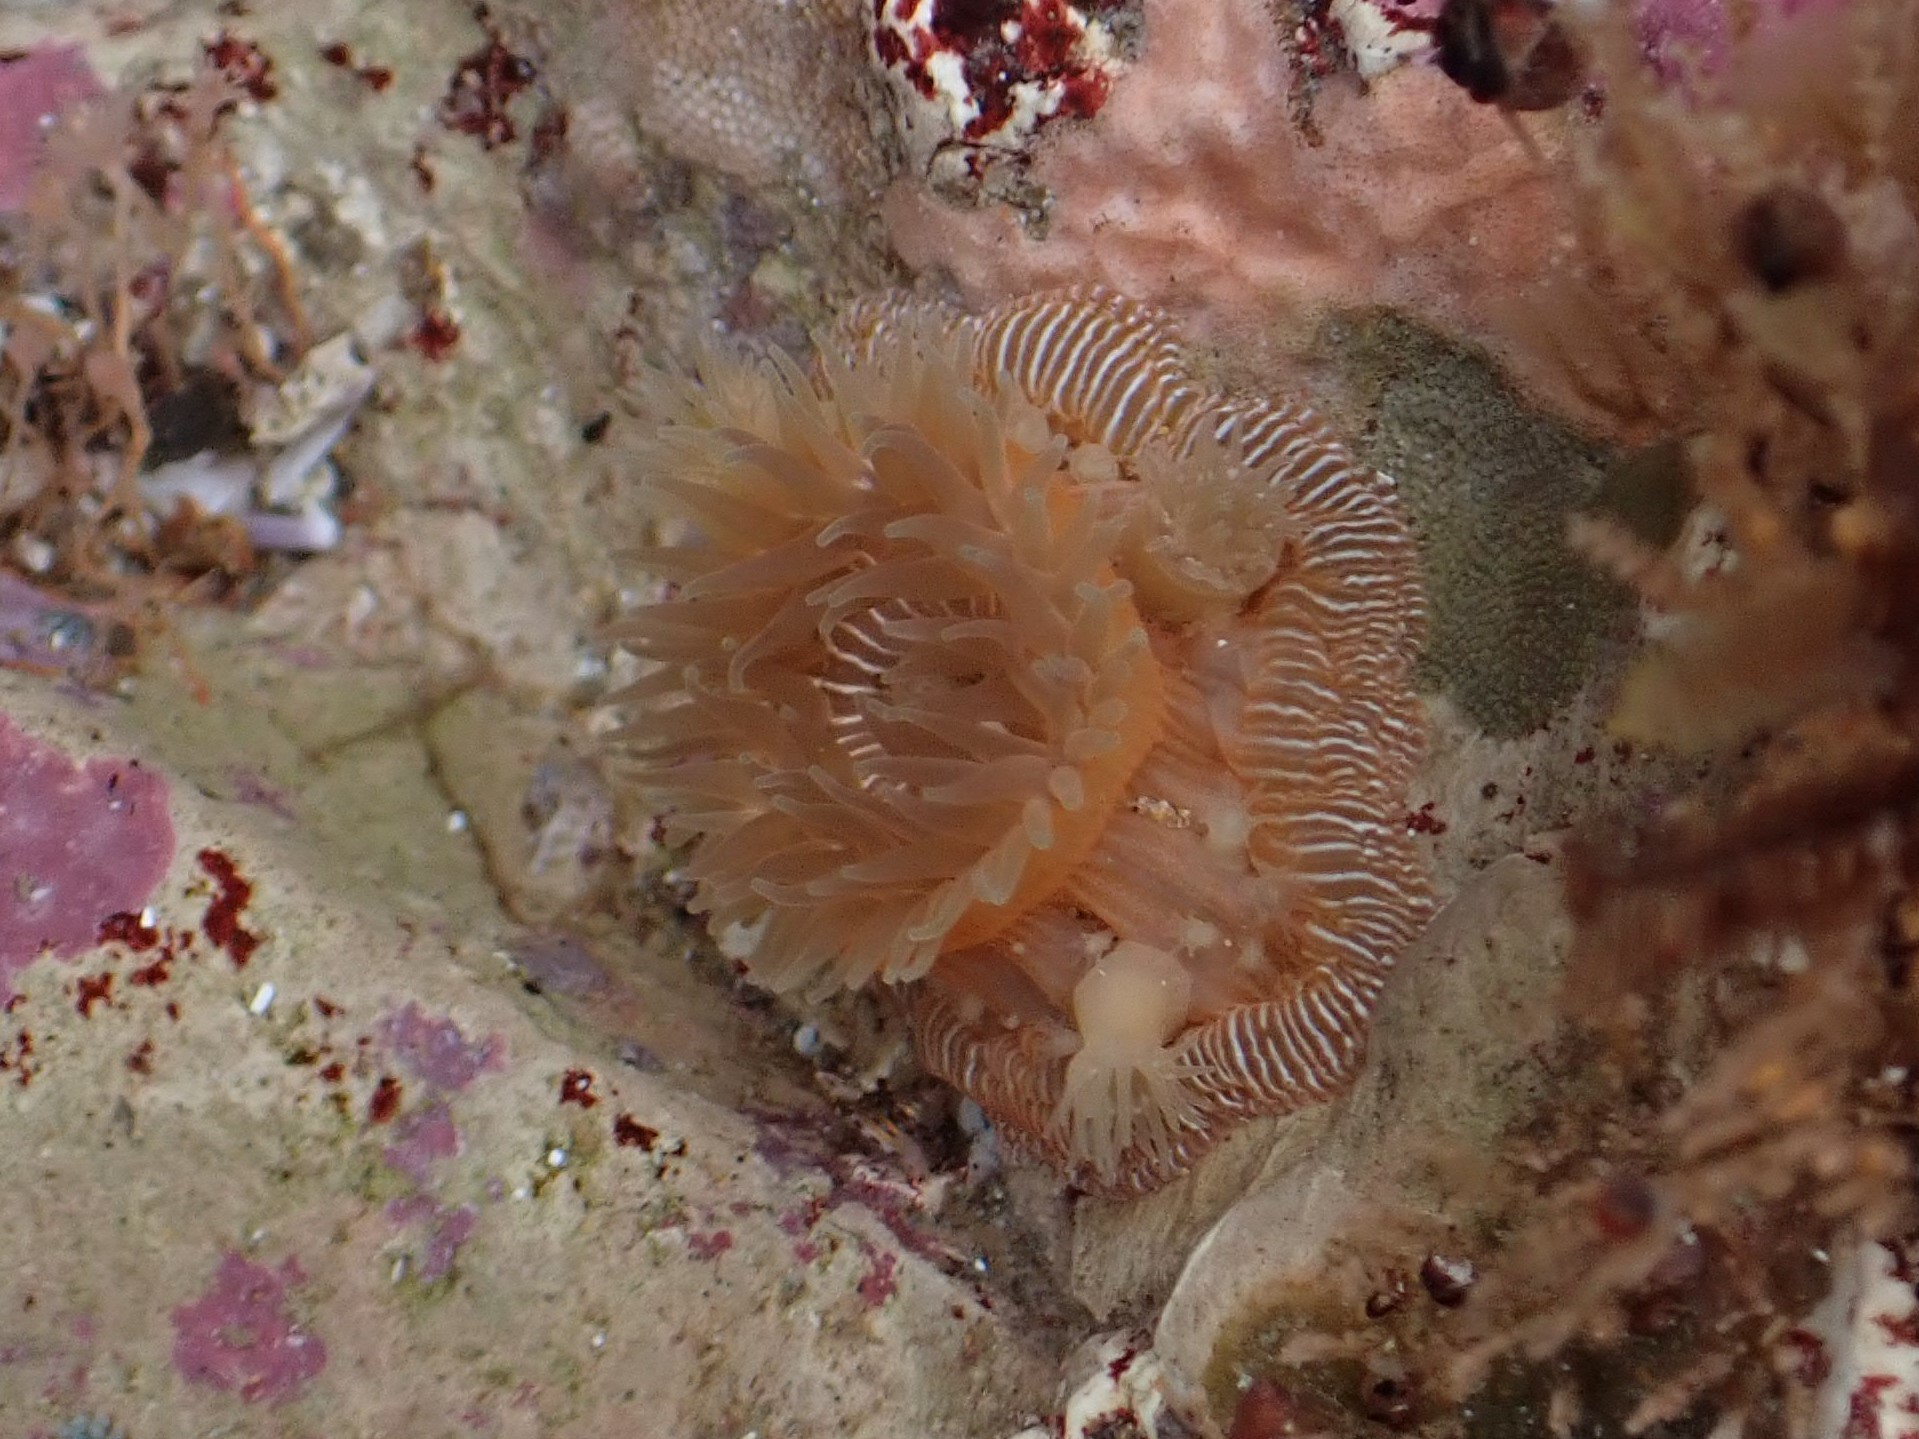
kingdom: Animalia
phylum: Cnidaria
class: Anthozoa
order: Actiniaria
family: Actiniidae
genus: Epiactis
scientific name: Epiactis prolifera
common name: Brooding anemone
